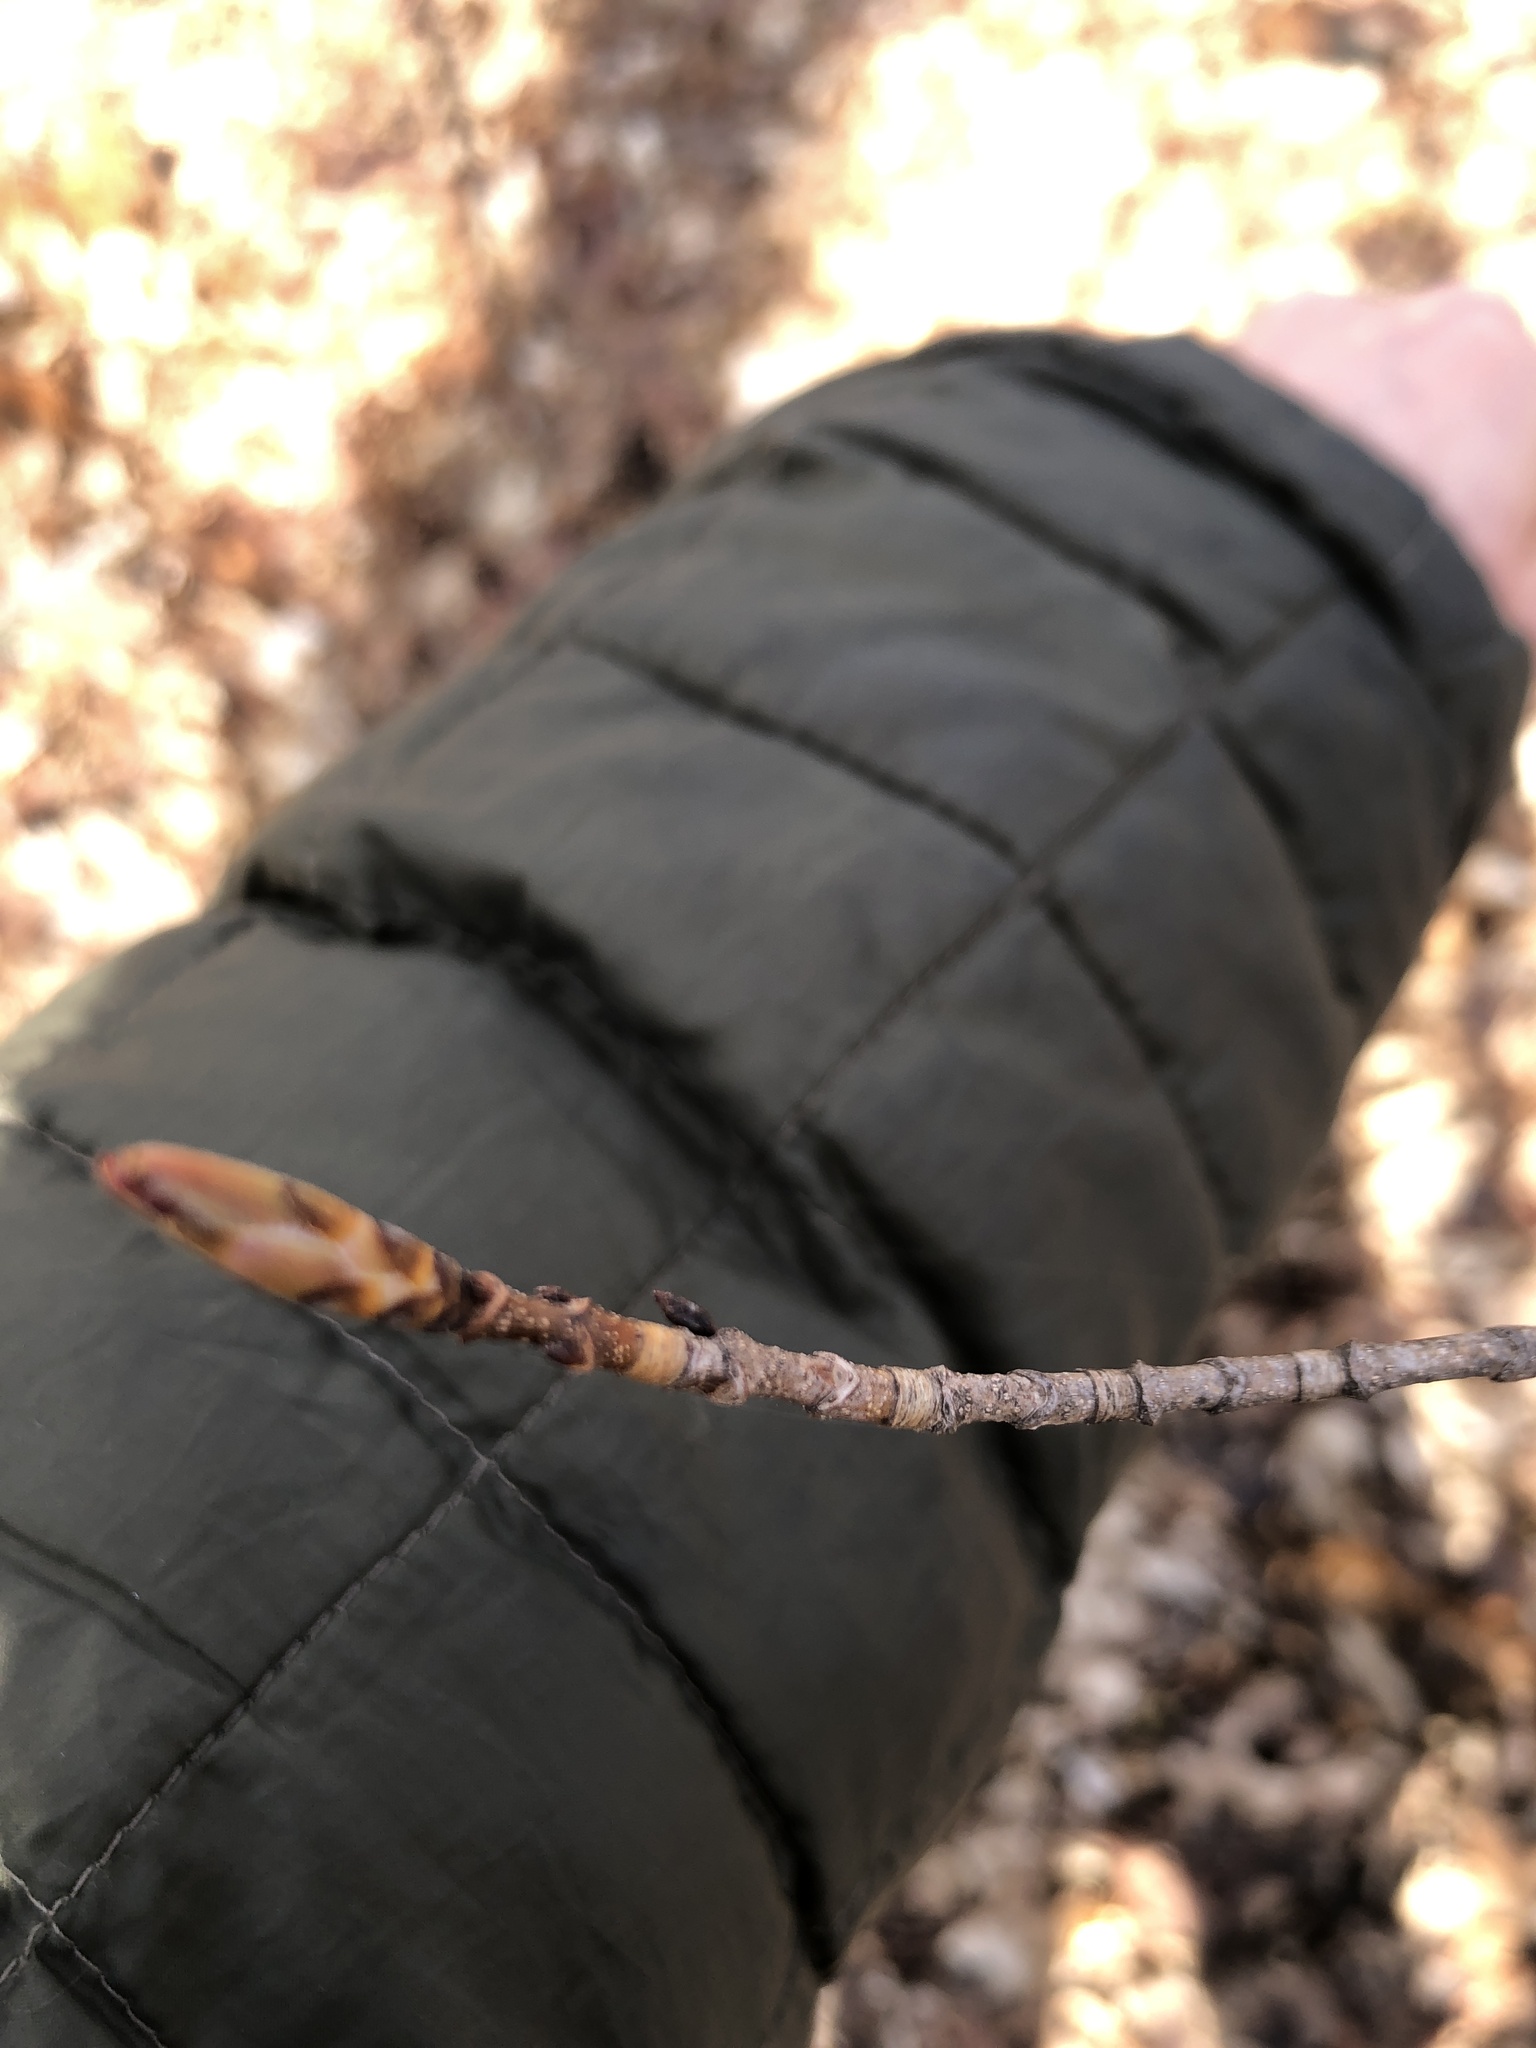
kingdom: Plantae
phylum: Tracheophyta
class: Magnoliopsida
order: Sapindales
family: Sapindaceae
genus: Acer
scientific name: Acer saccharum
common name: Sugar maple
